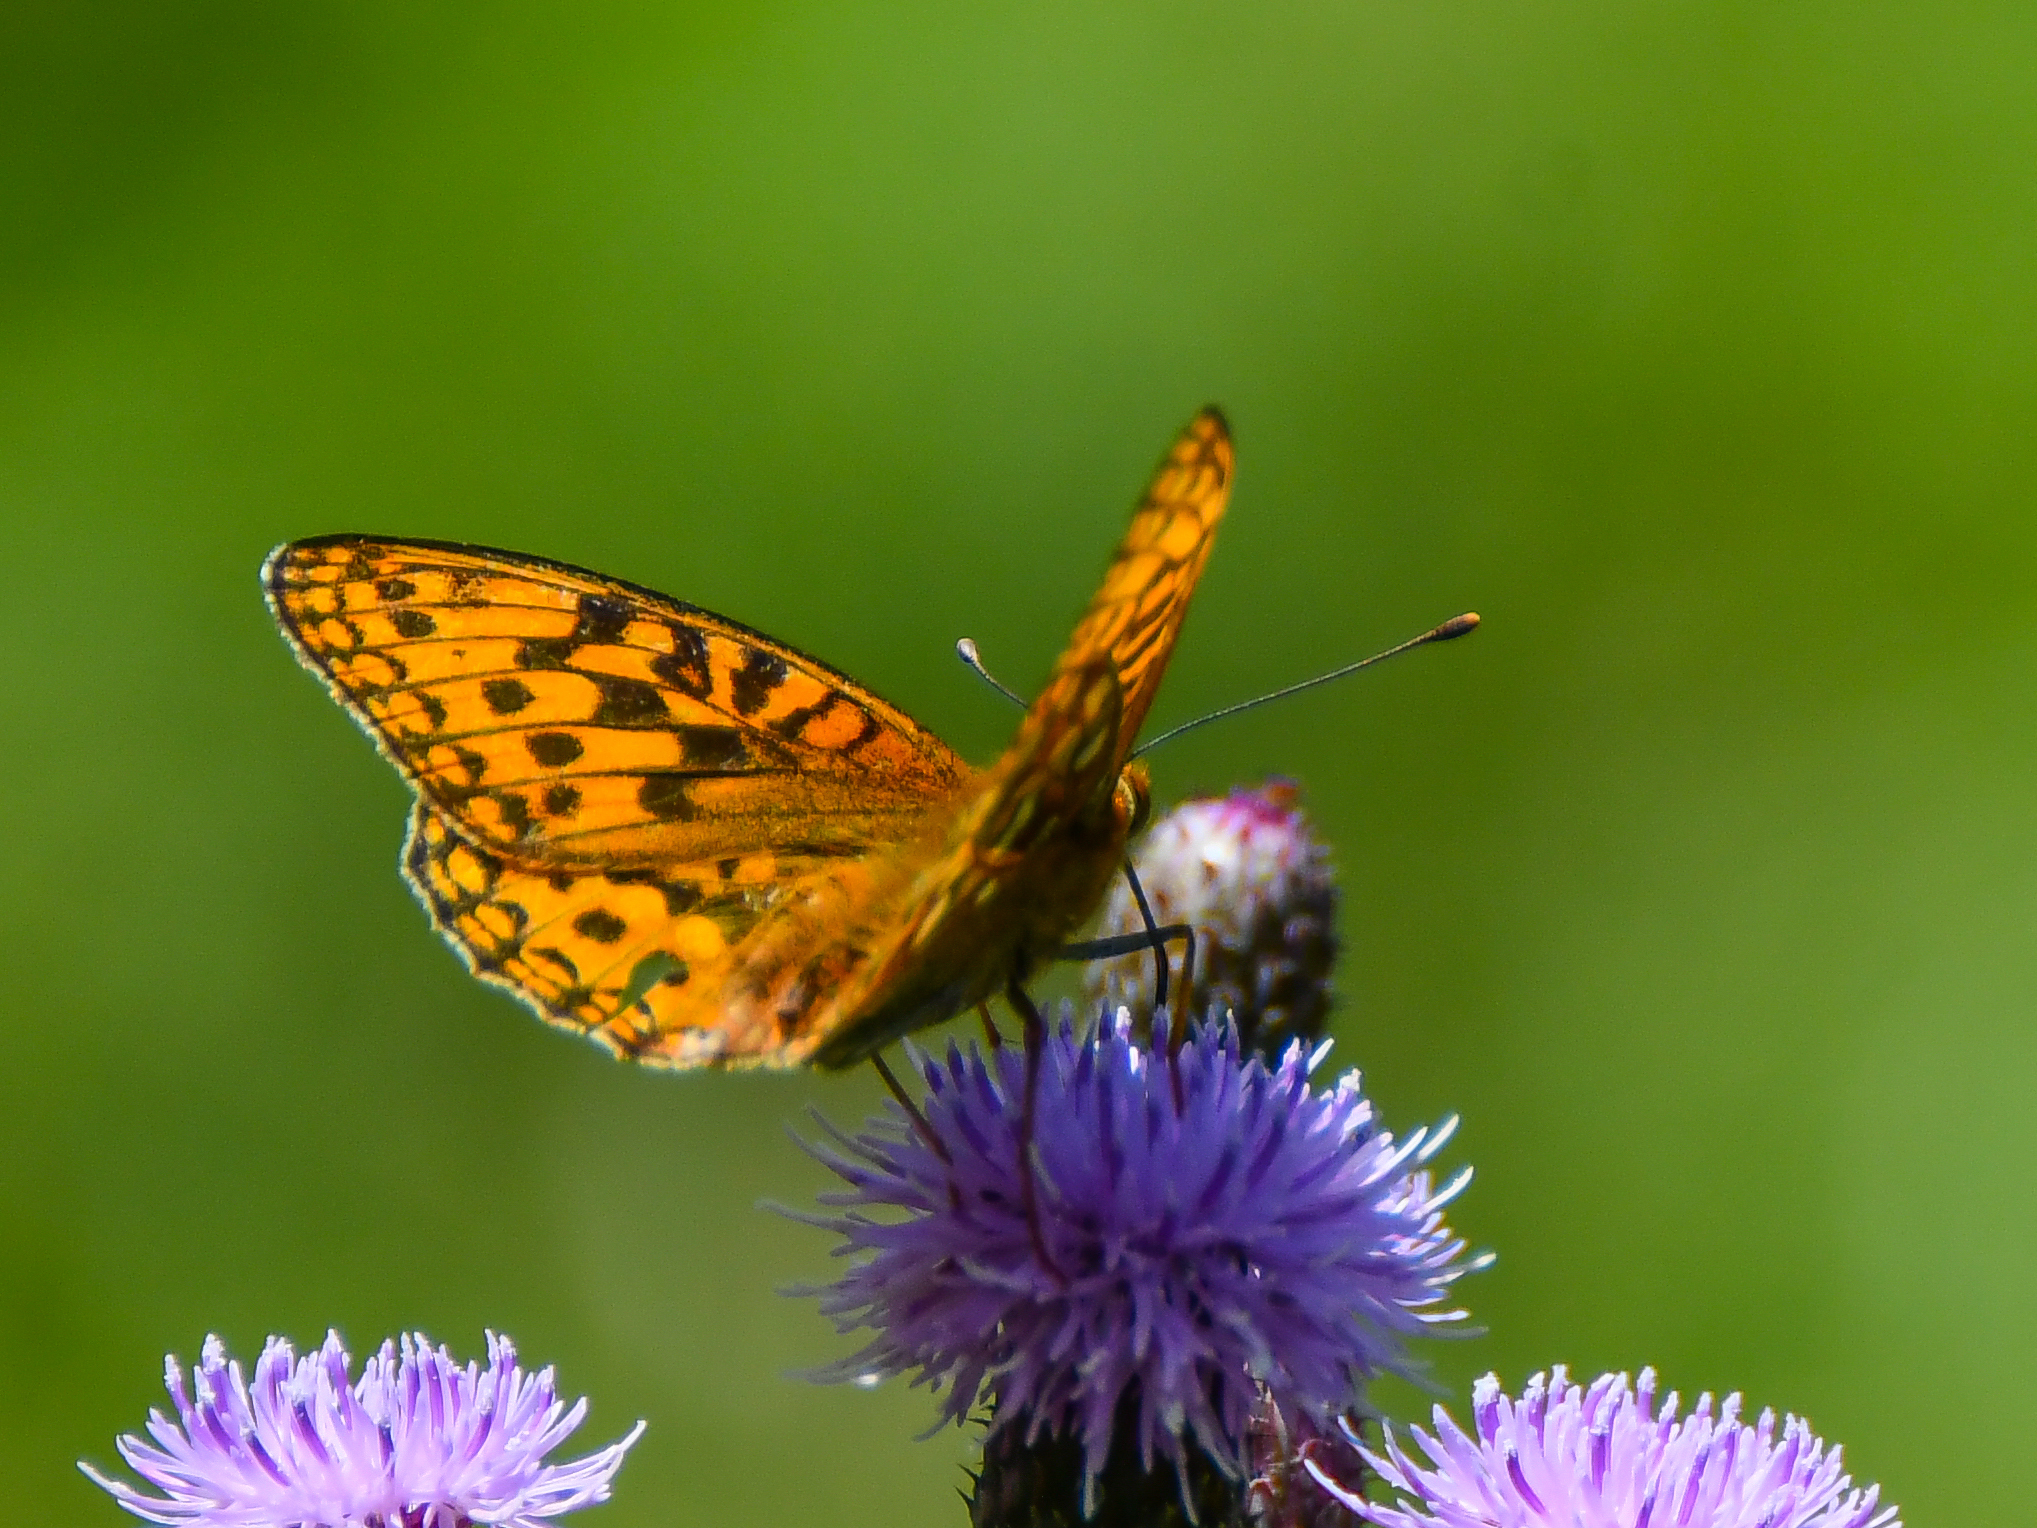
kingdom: Animalia
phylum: Arthropoda
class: Insecta
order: Lepidoptera
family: Nymphalidae
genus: Fabriciana
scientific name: Fabriciana adippe
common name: High brown fritillary
